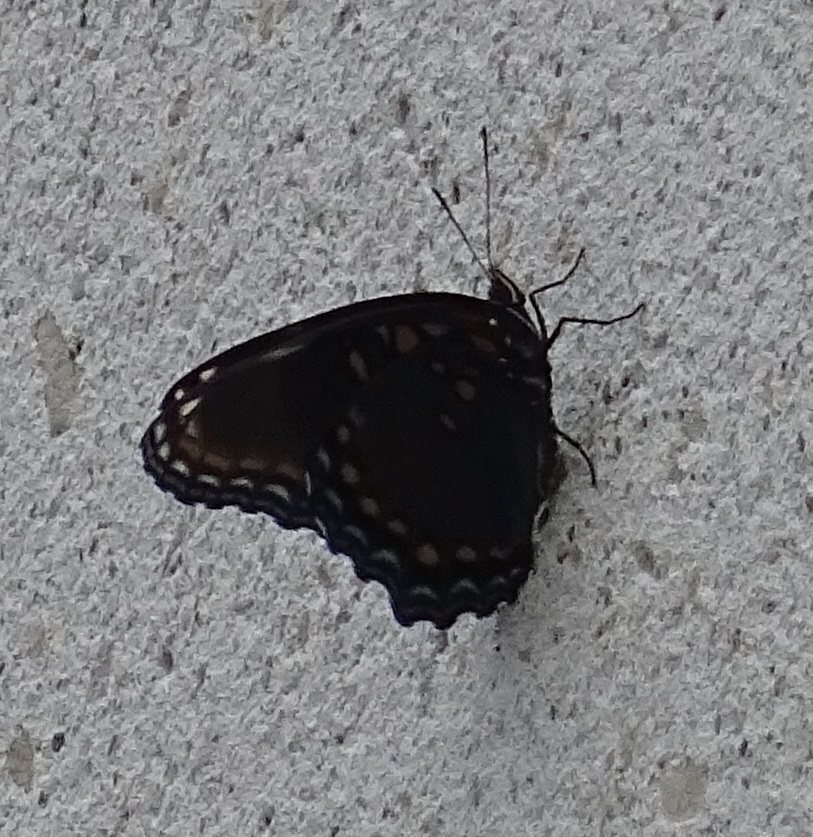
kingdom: Animalia
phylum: Arthropoda
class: Insecta
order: Lepidoptera
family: Nymphalidae
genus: Limenitis
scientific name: Limenitis arthemis
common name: Red-spotted admiral
